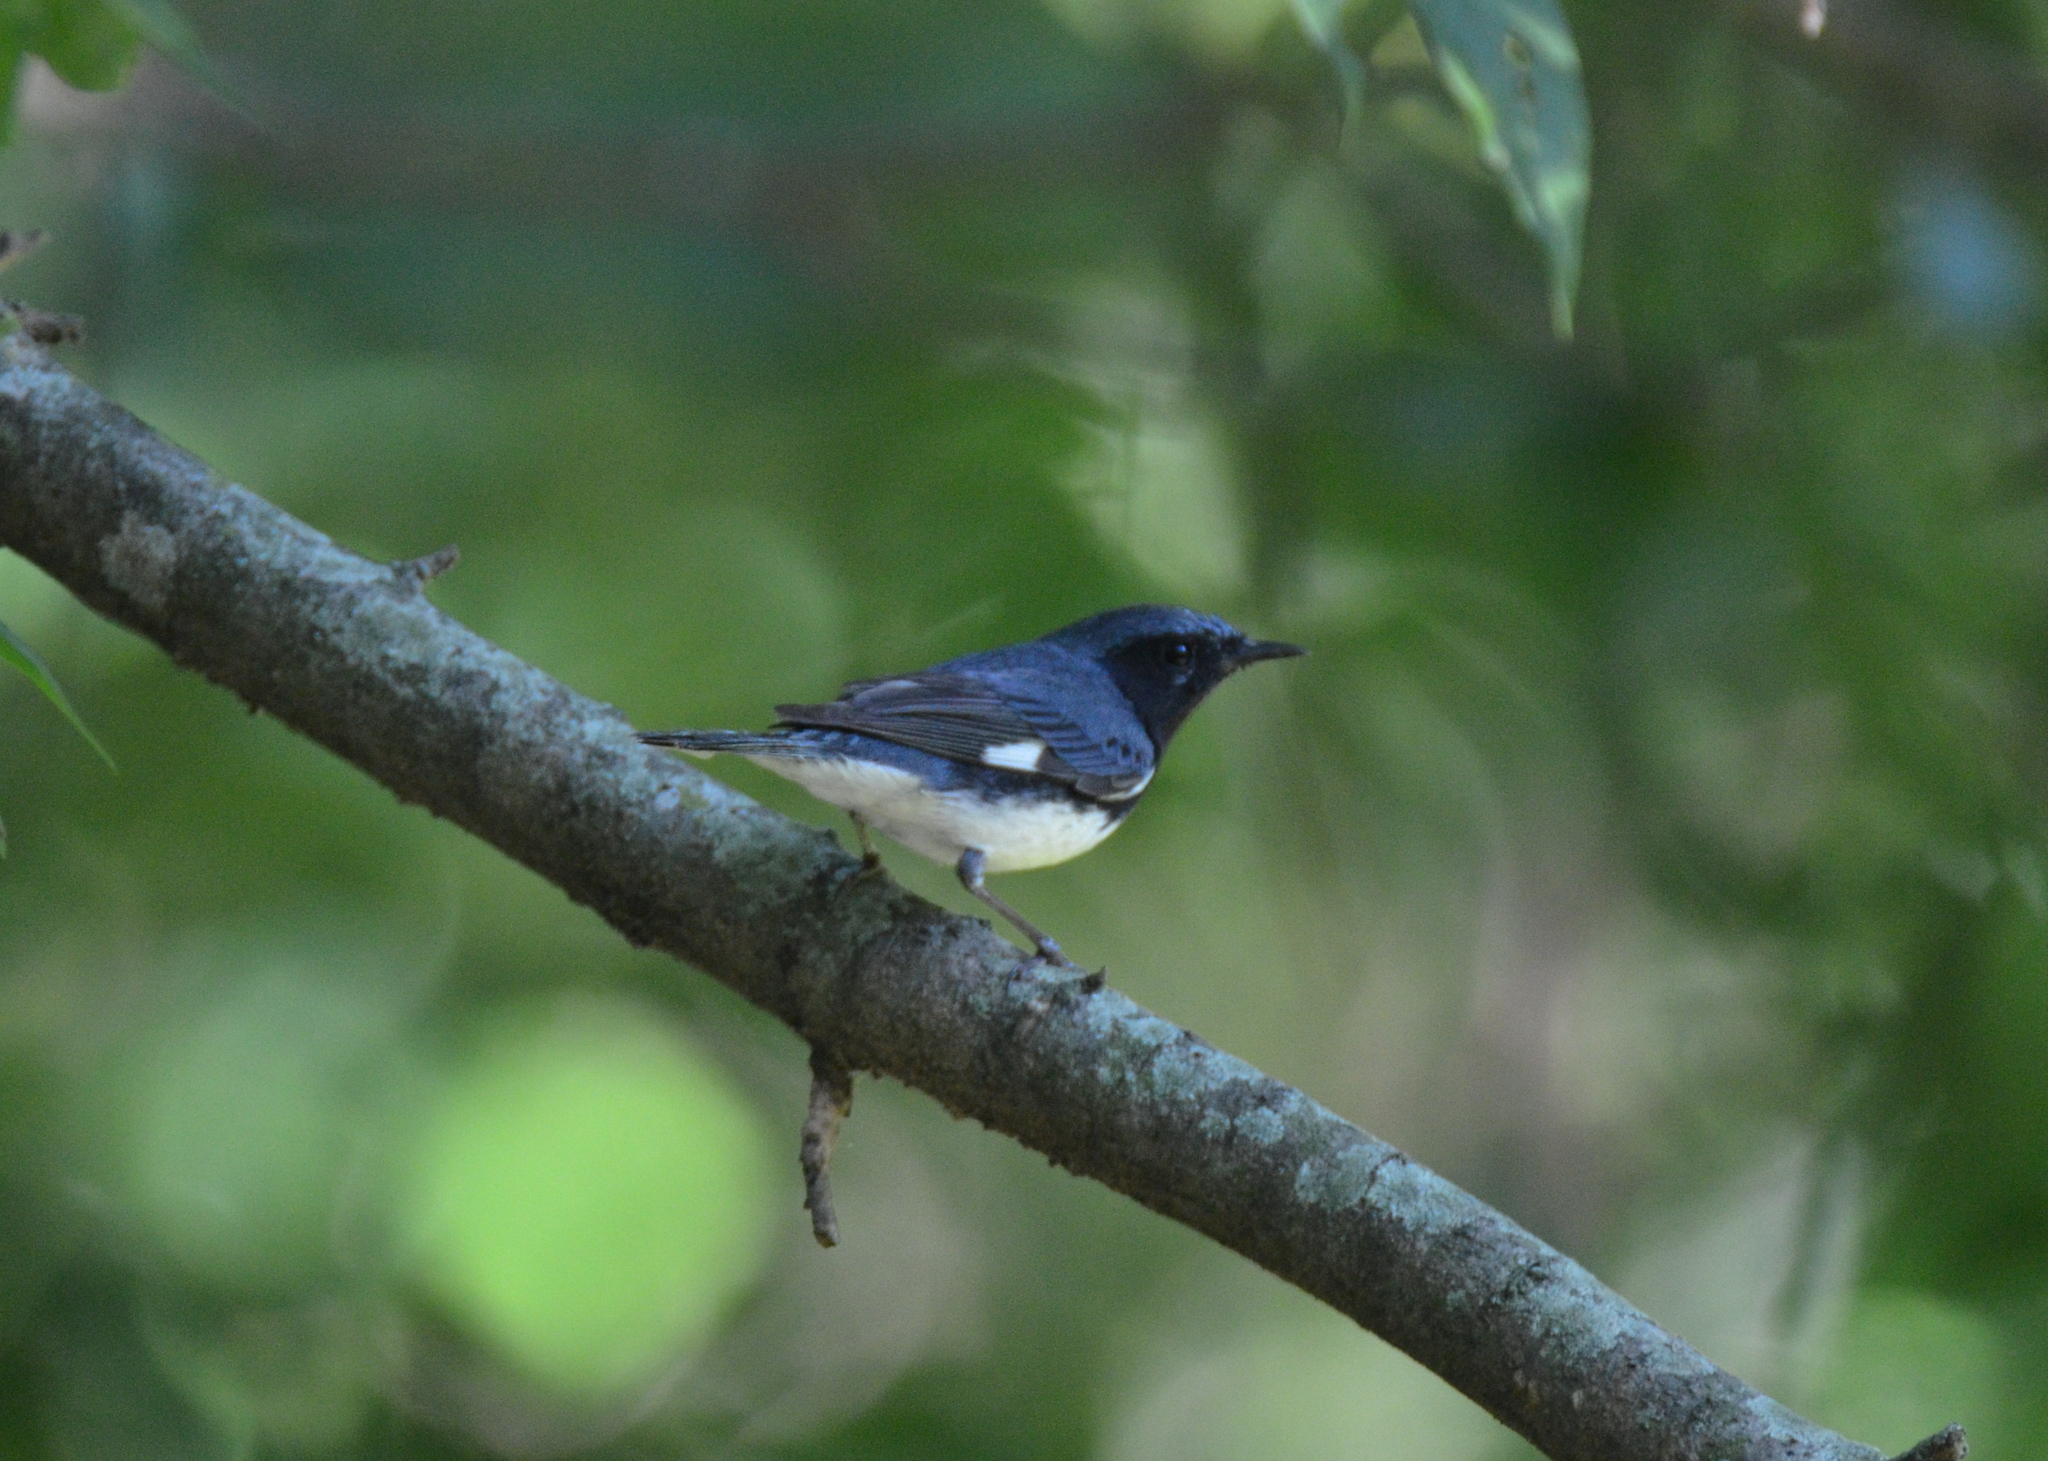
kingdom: Animalia
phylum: Chordata
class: Aves
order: Passeriformes
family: Parulidae
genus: Setophaga
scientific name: Setophaga caerulescens
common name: Black-throated blue warbler
